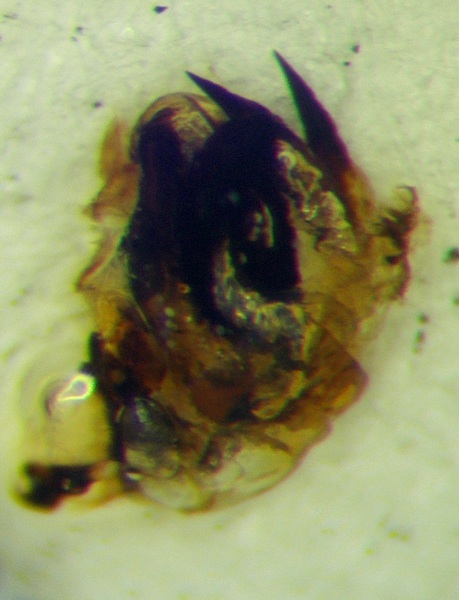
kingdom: Animalia
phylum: Arthropoda
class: Insecta
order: Hemiptera
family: Scutelleridae
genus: Irochrotus
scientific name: Irochrotus lanatus
